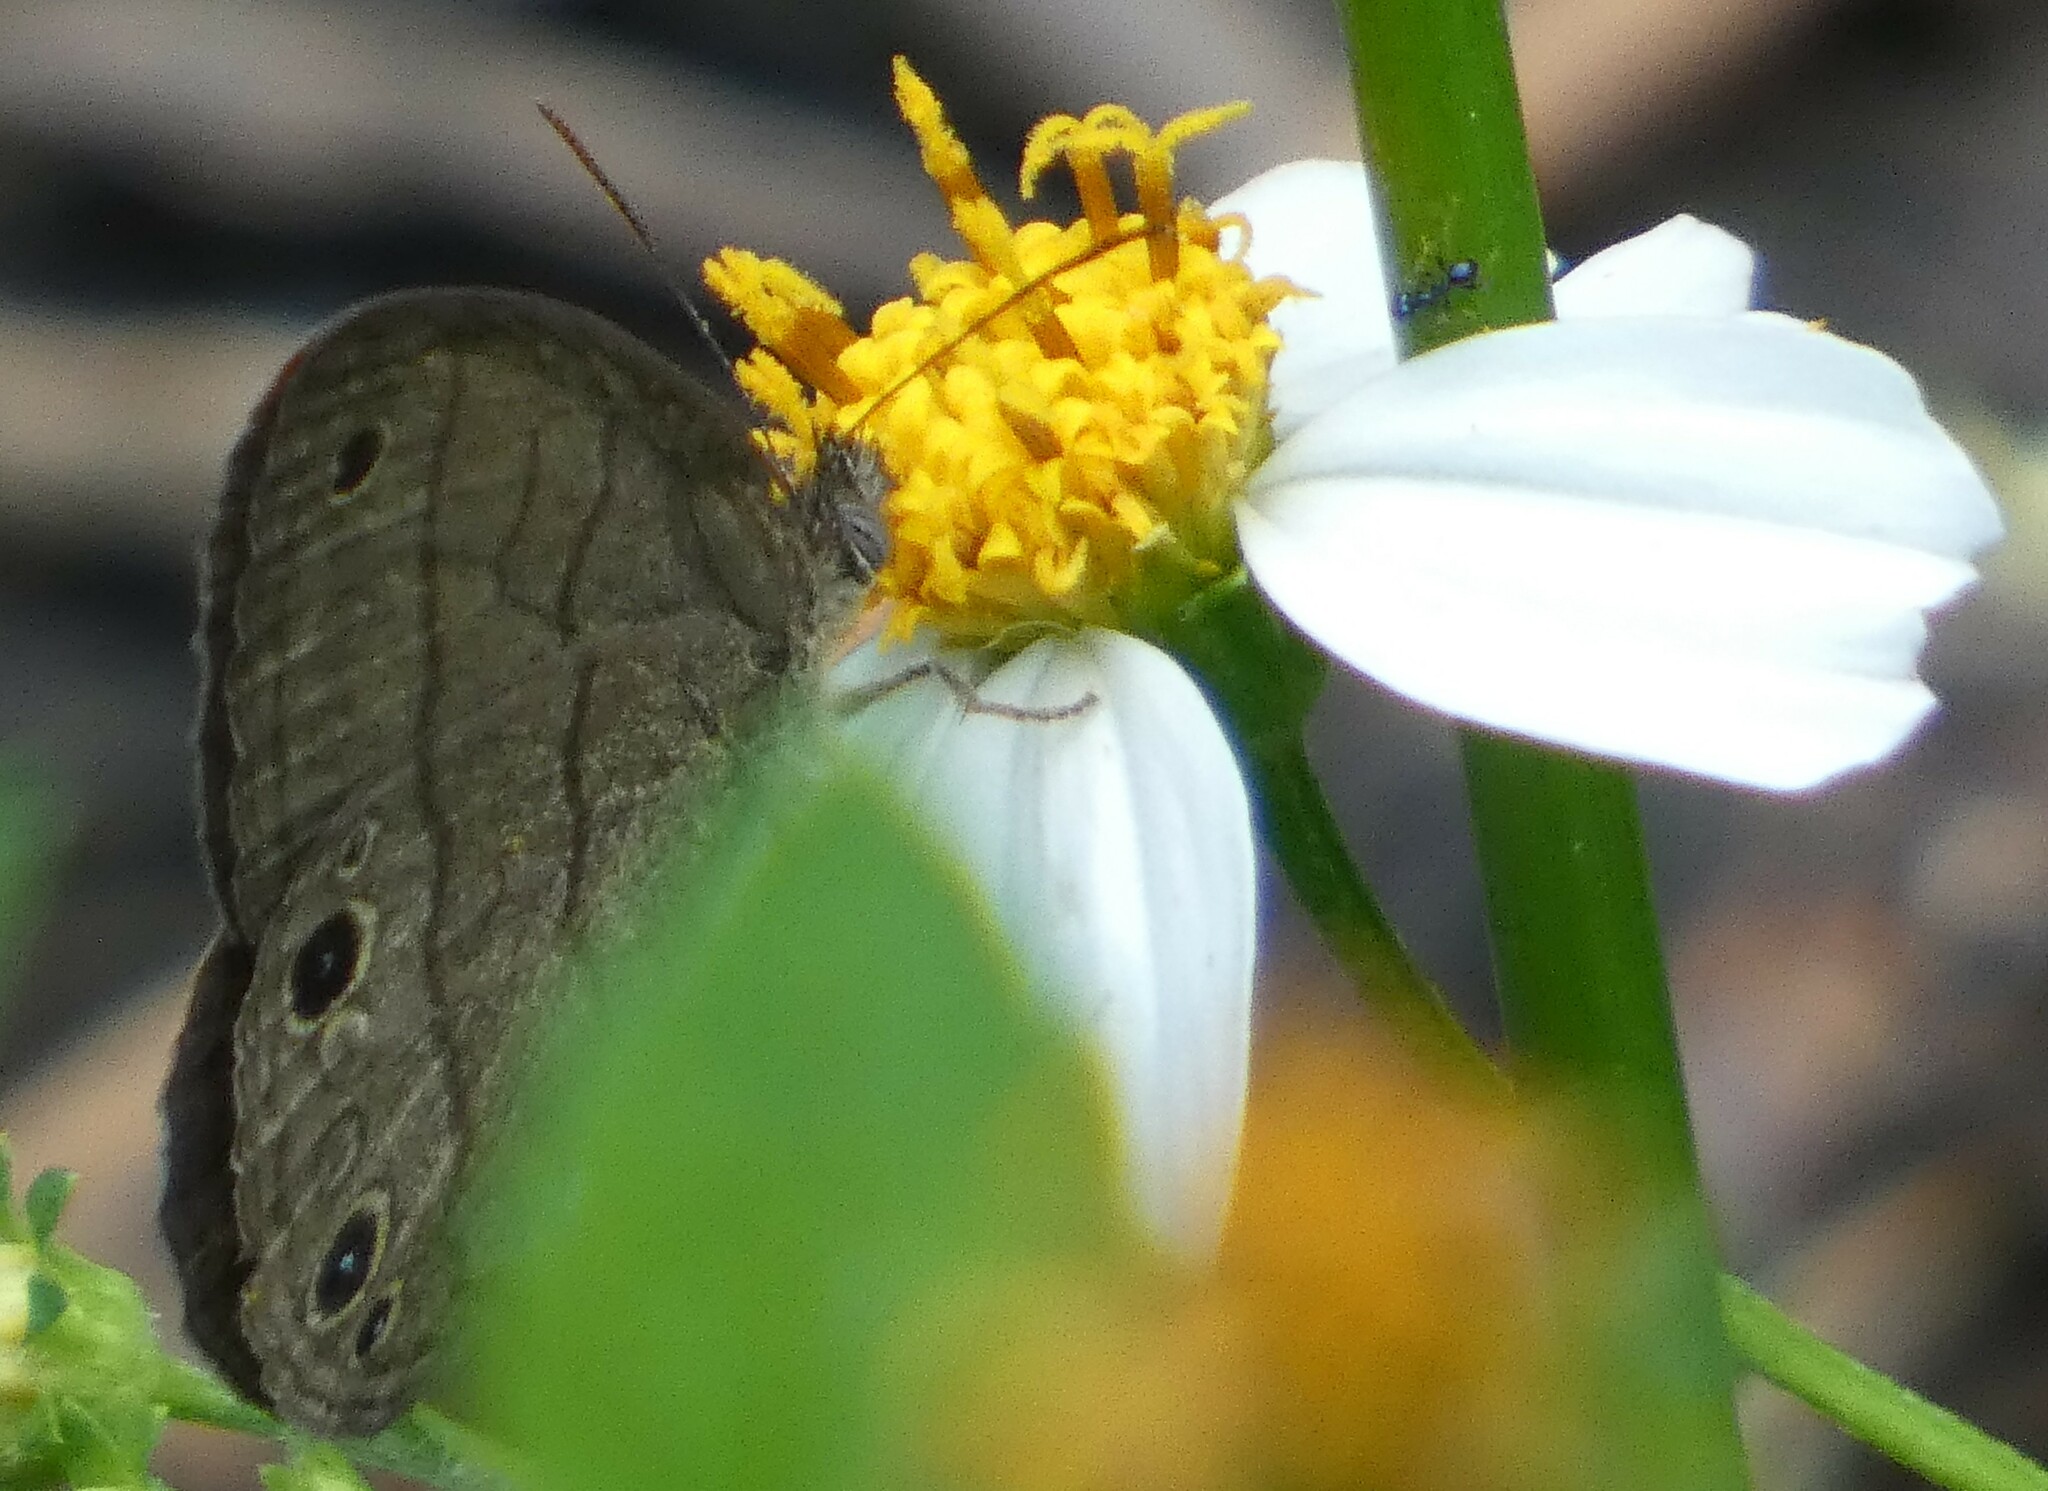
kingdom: Animalia
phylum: Arthropoda
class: Insecta
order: Lepidoptera
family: Nymphalidae
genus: Hermeuptychia
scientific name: Hermeuptychia hermes
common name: Hermes satyr
